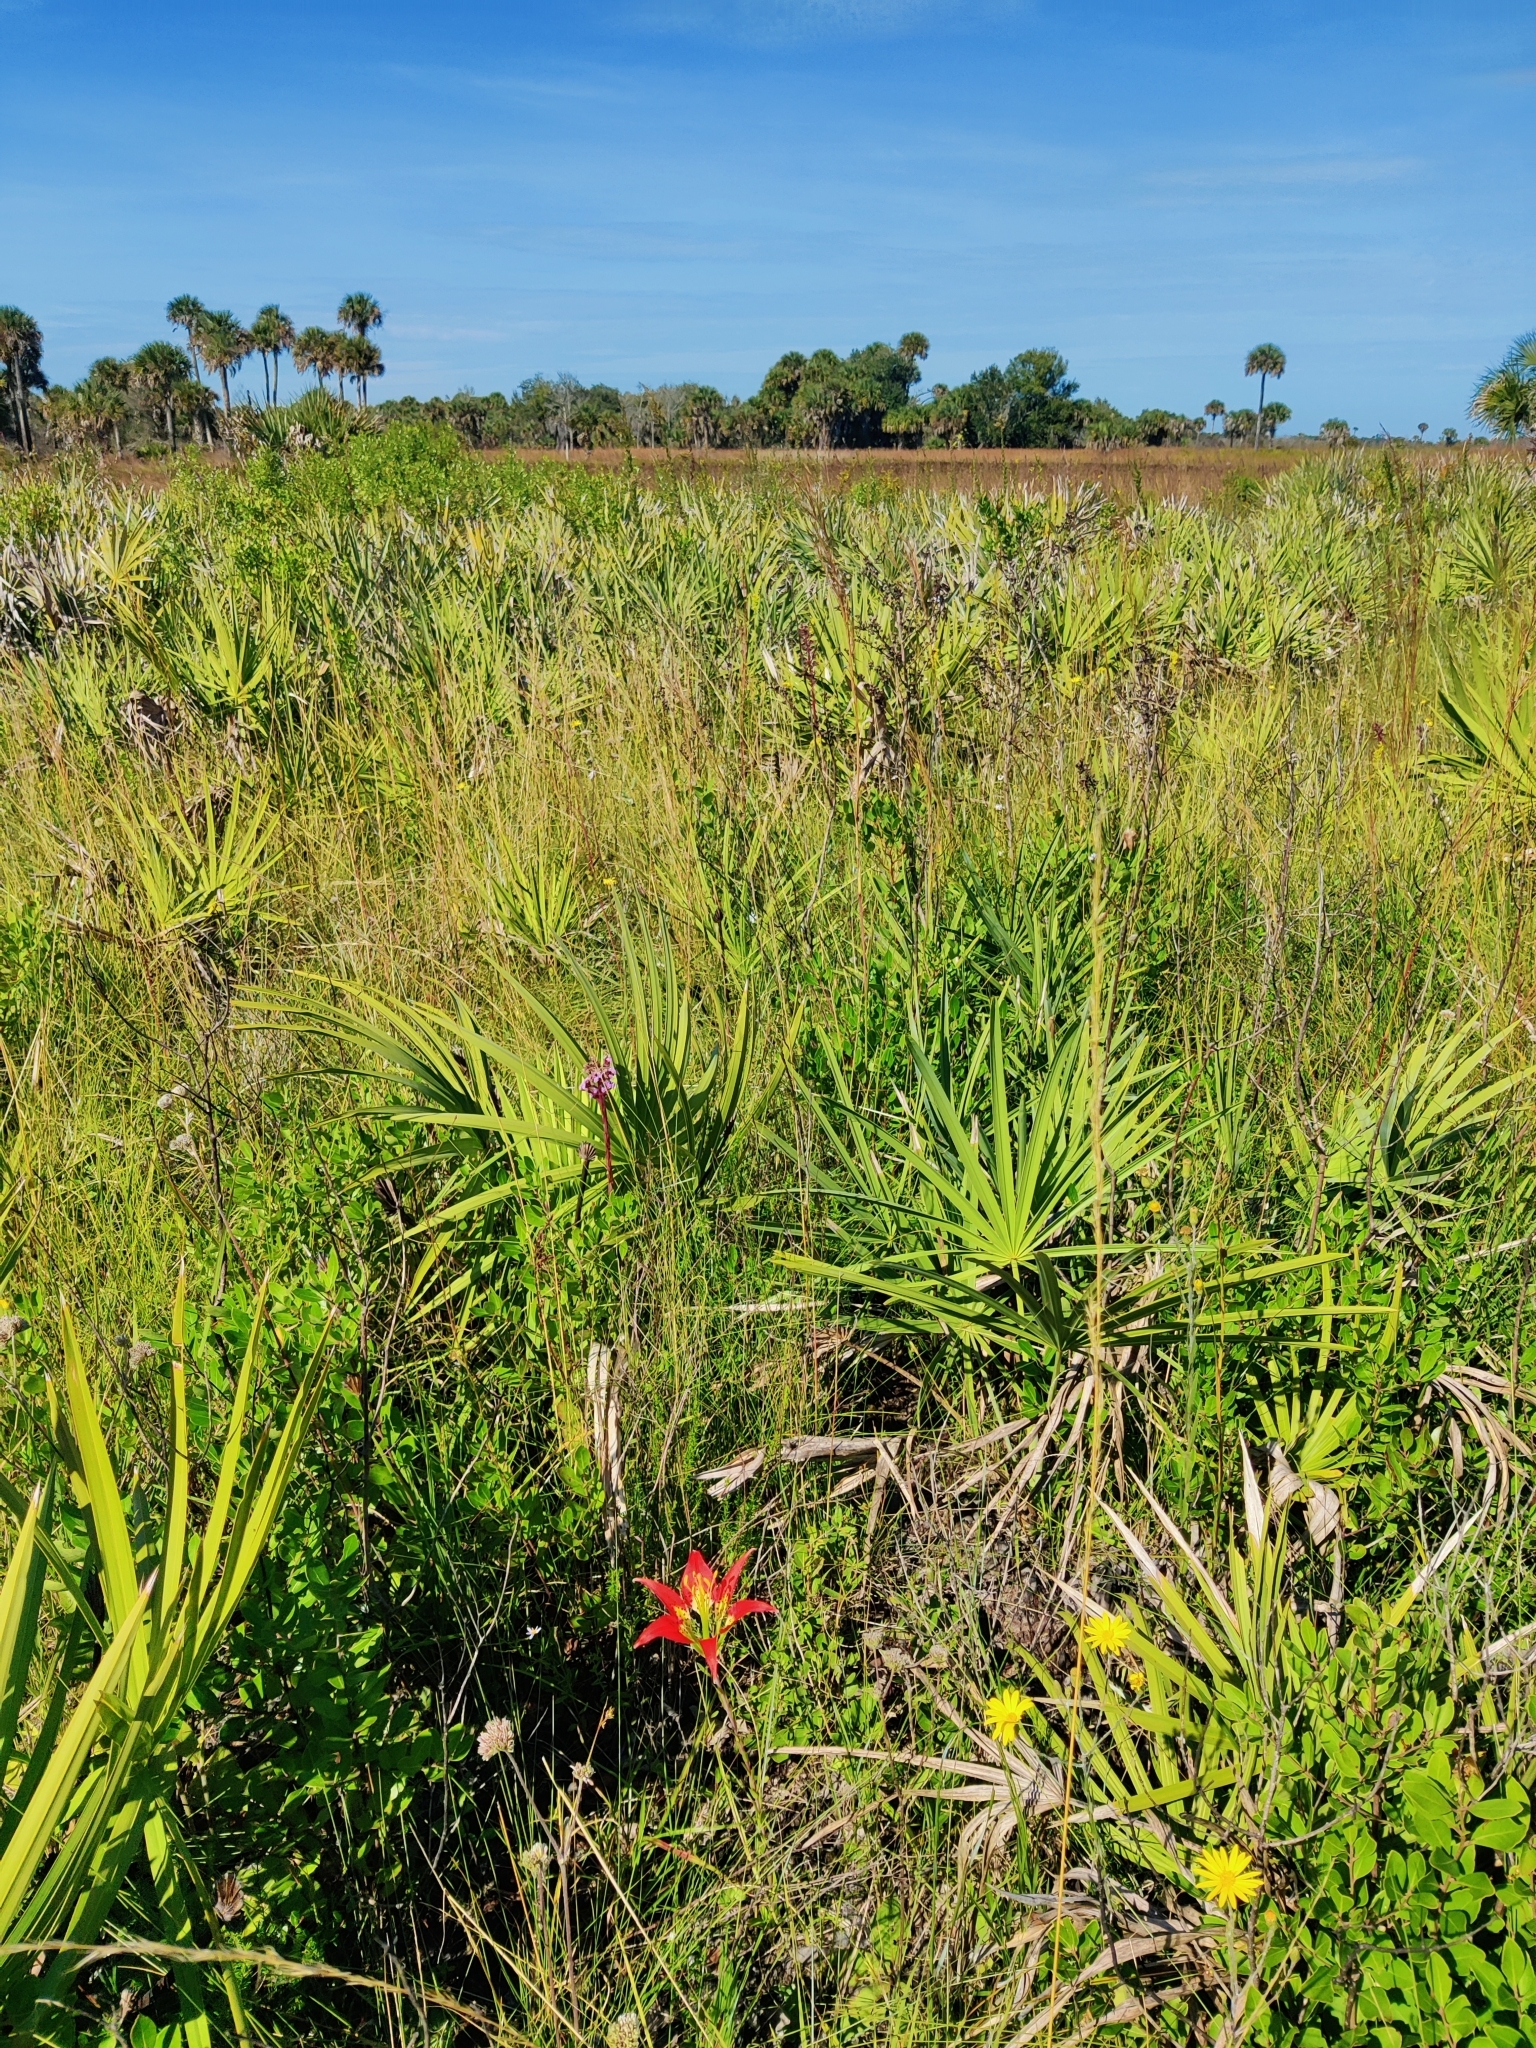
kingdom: Plantae
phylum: Tracheophyta
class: Liliopsida
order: Liliales
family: Liliaceae
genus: Lilium
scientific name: Lilium catesbaei
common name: Catesby's lily
